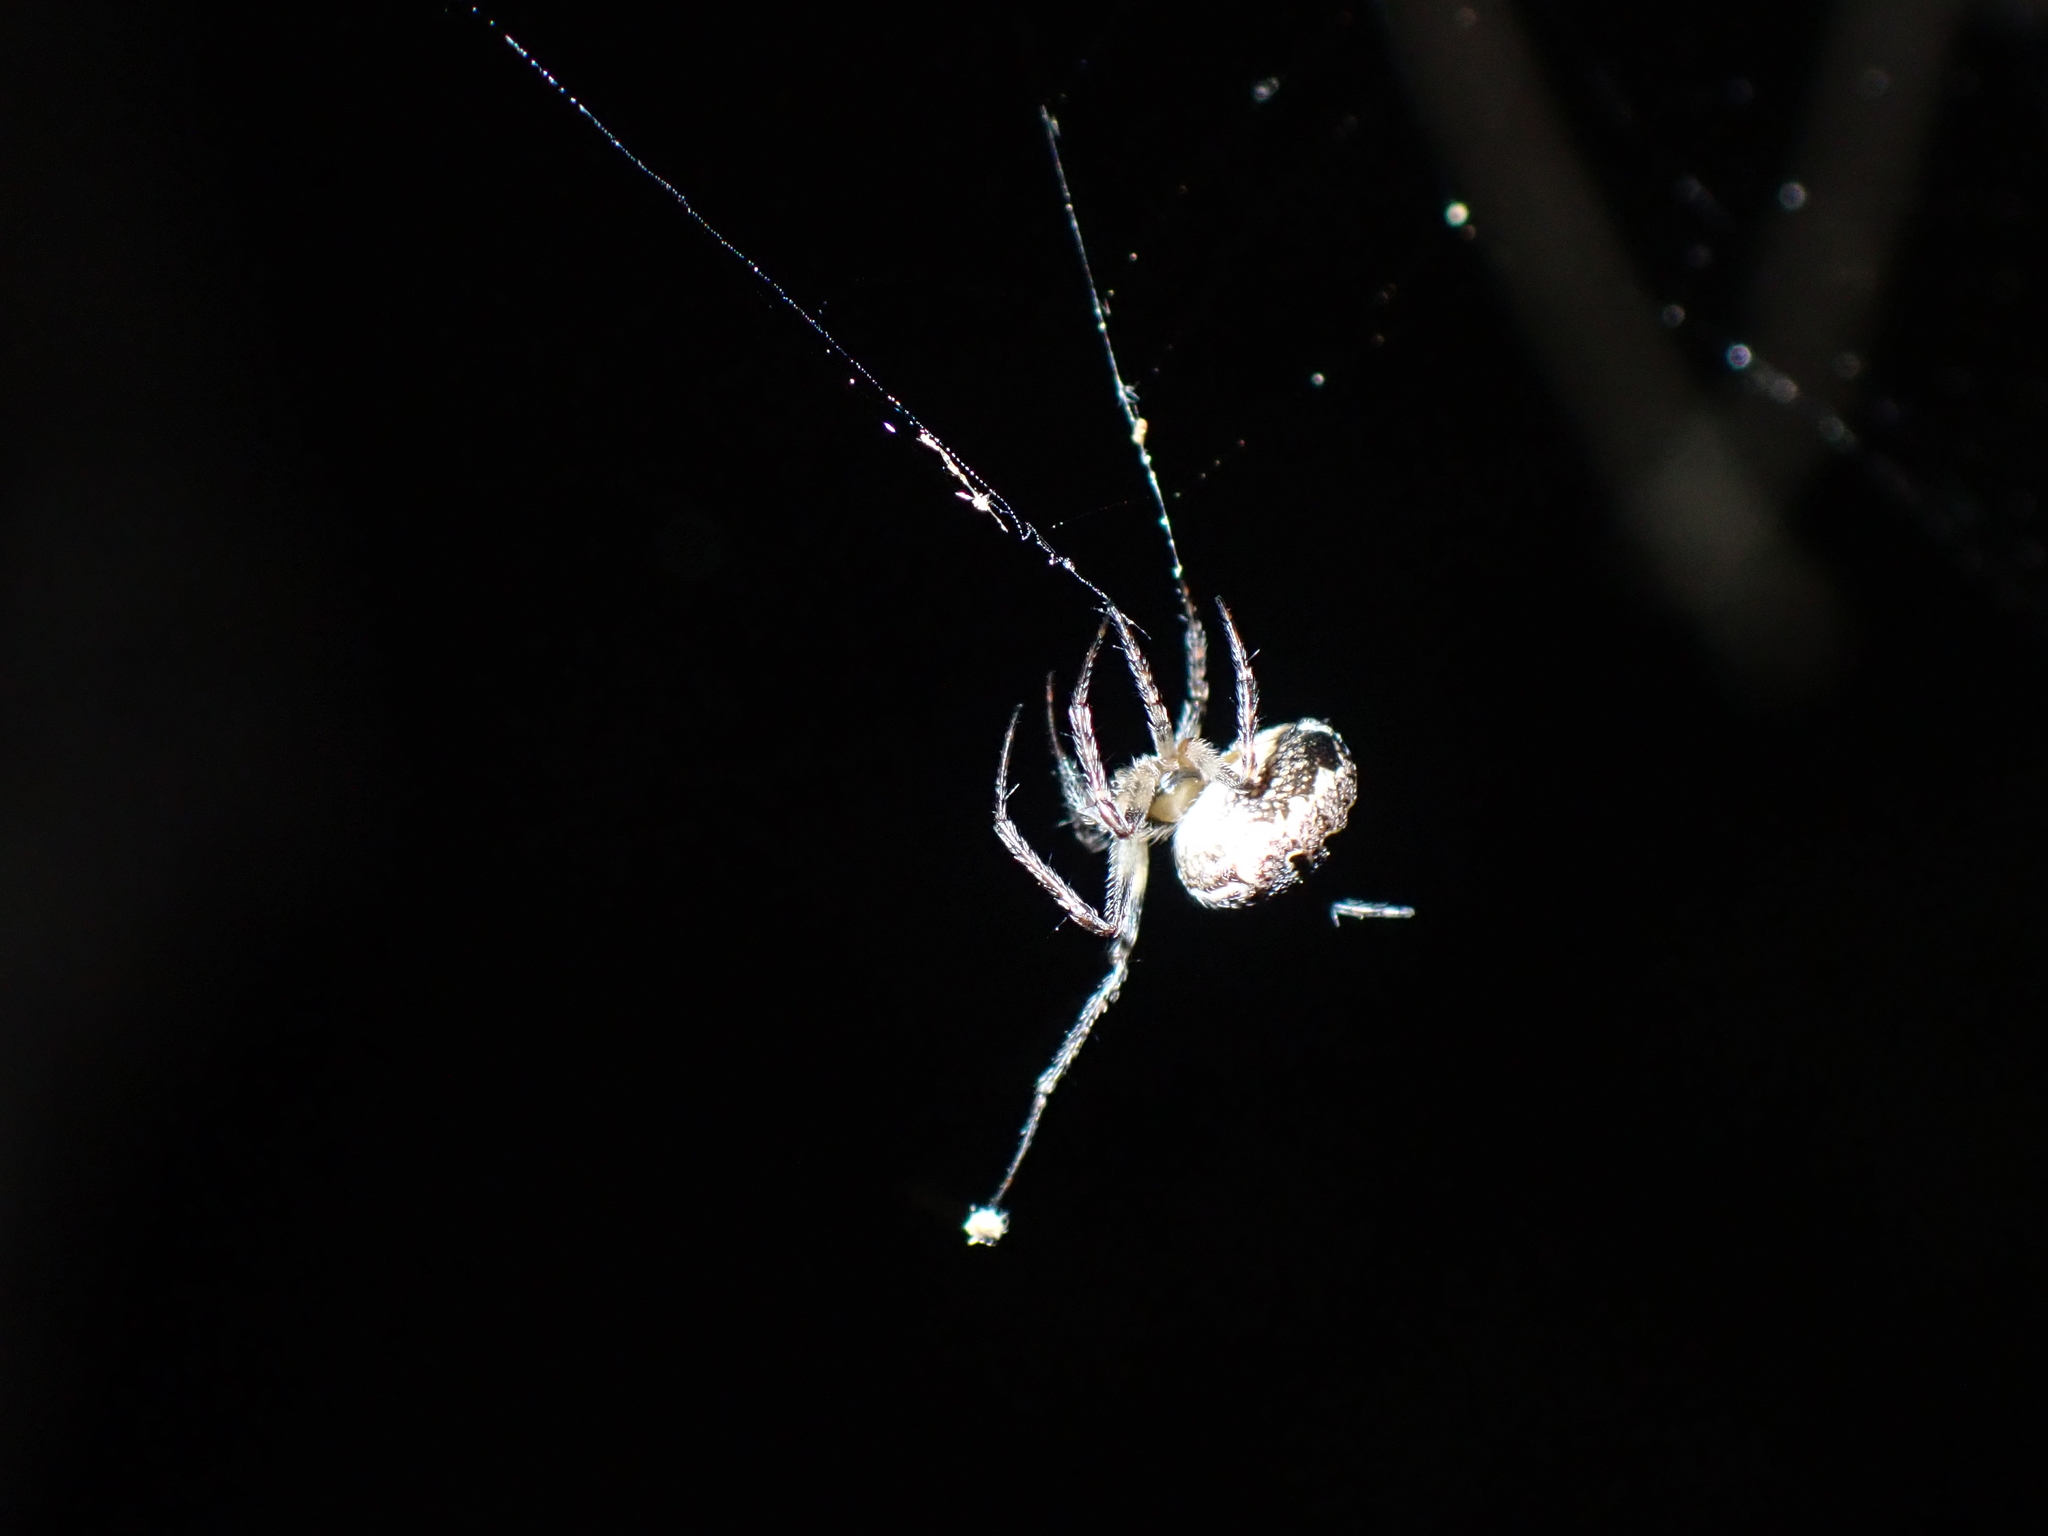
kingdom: Animalia
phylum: Arthropoda
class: Arachnida
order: Araneae
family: Araneidae
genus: Zilla
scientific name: Zilla diodia
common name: Zilla diodia
